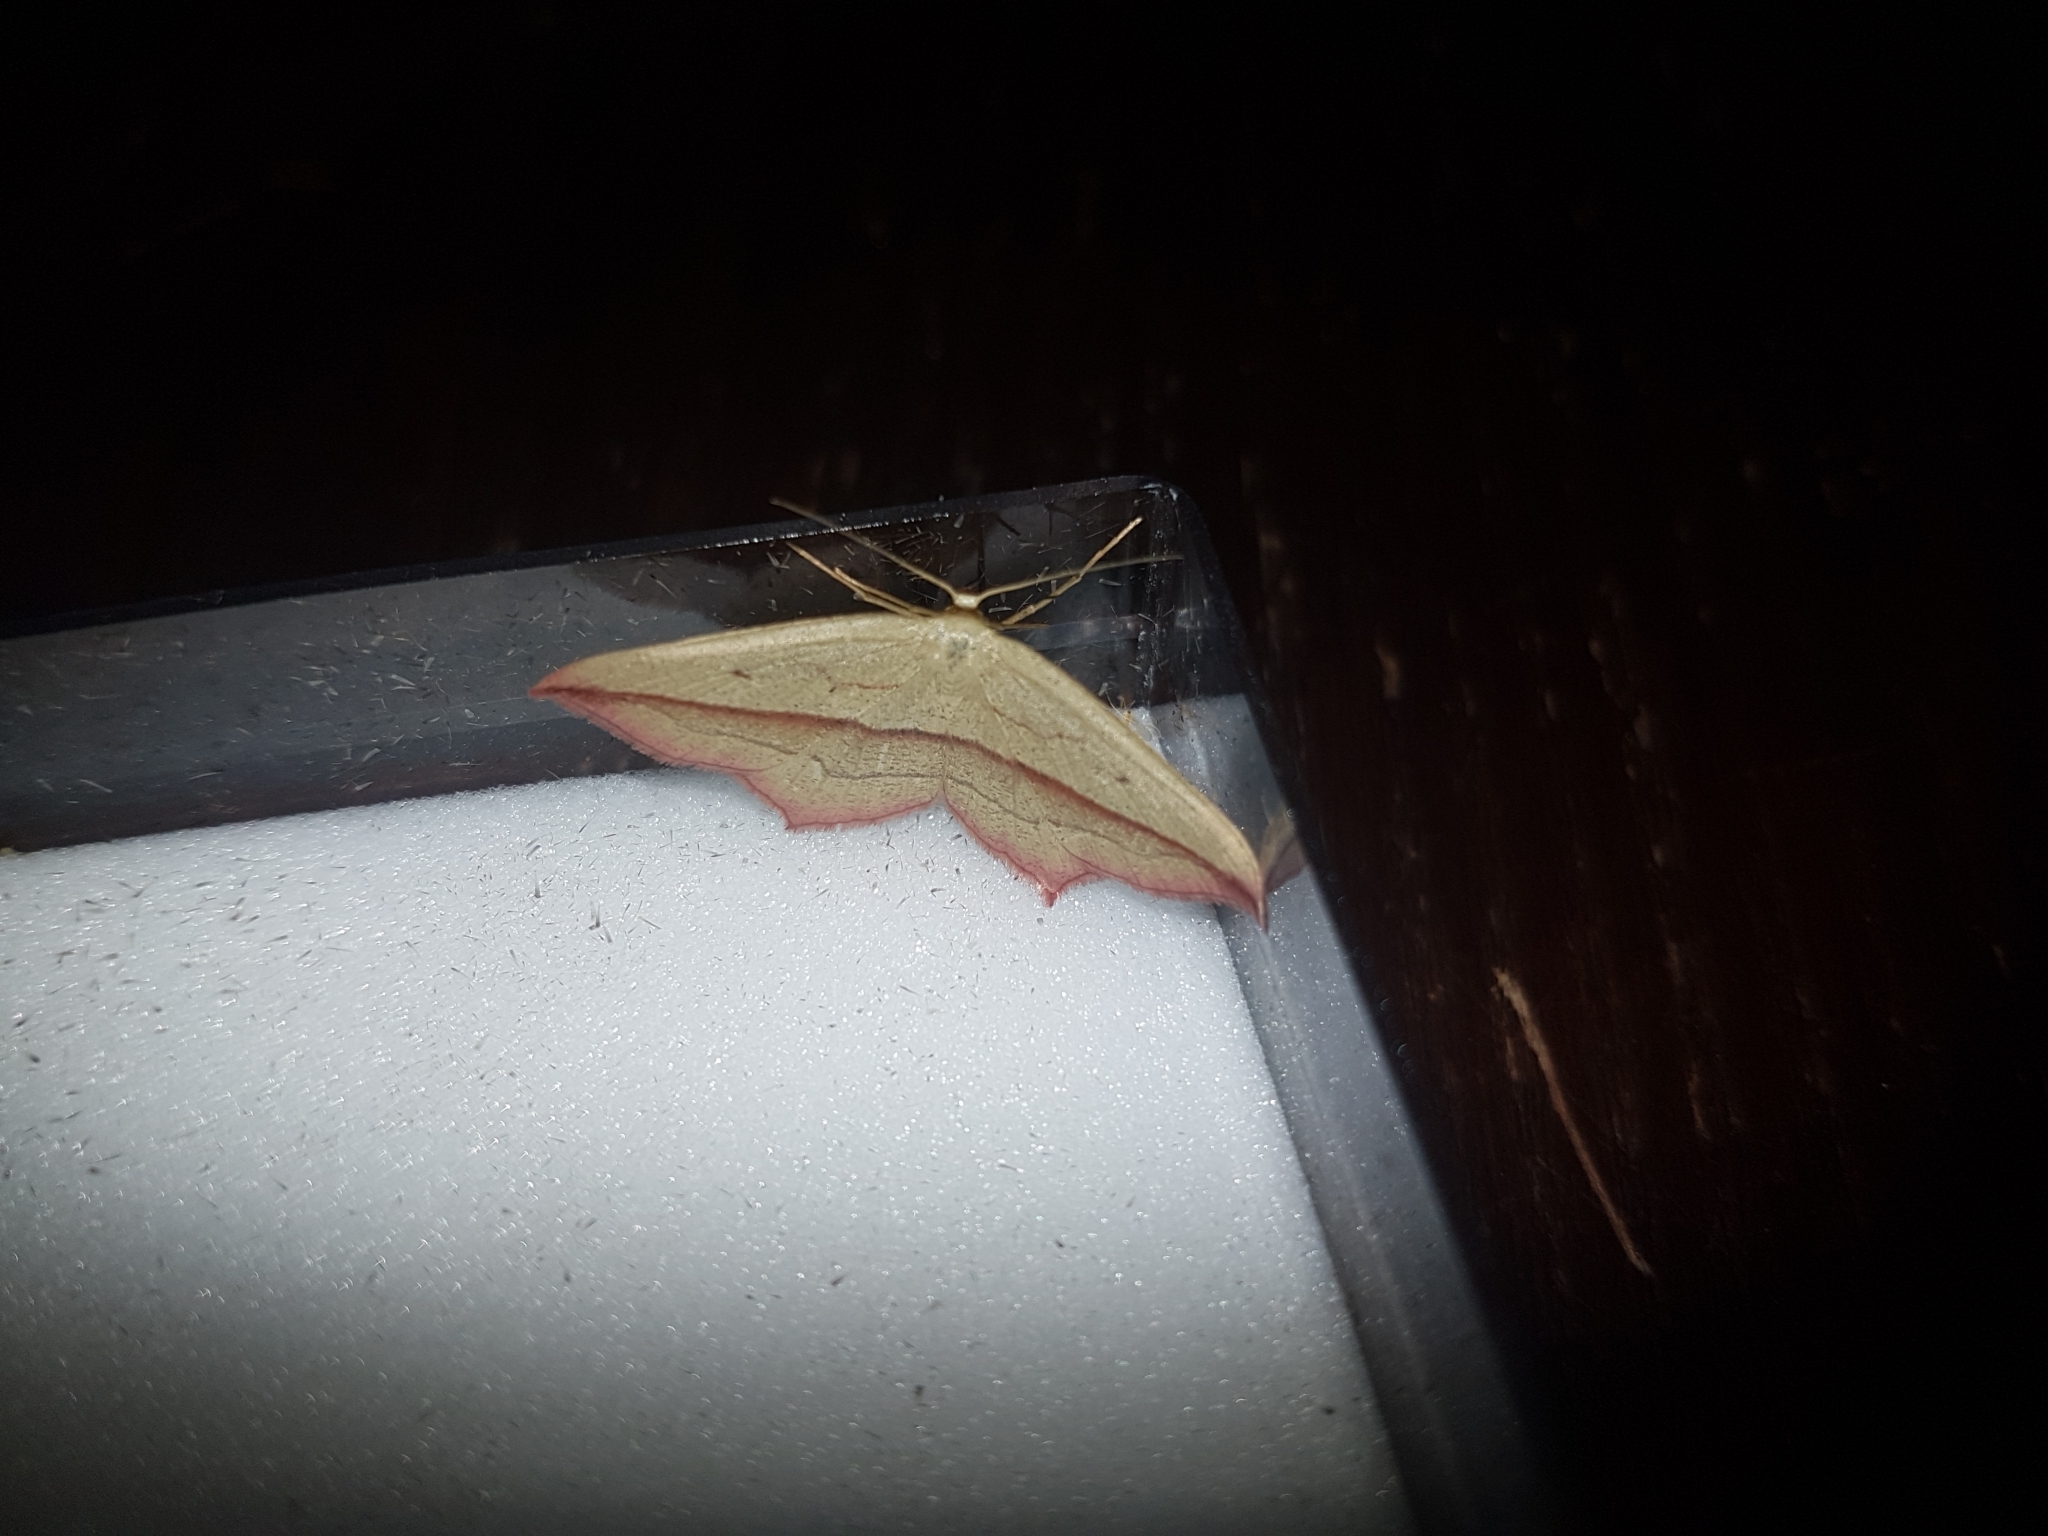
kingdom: Animalia
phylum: Arthropoda
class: Insecta
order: Lepidoptera
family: Geometridae
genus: Timandra
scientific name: Timandra comae
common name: Blood-vein
